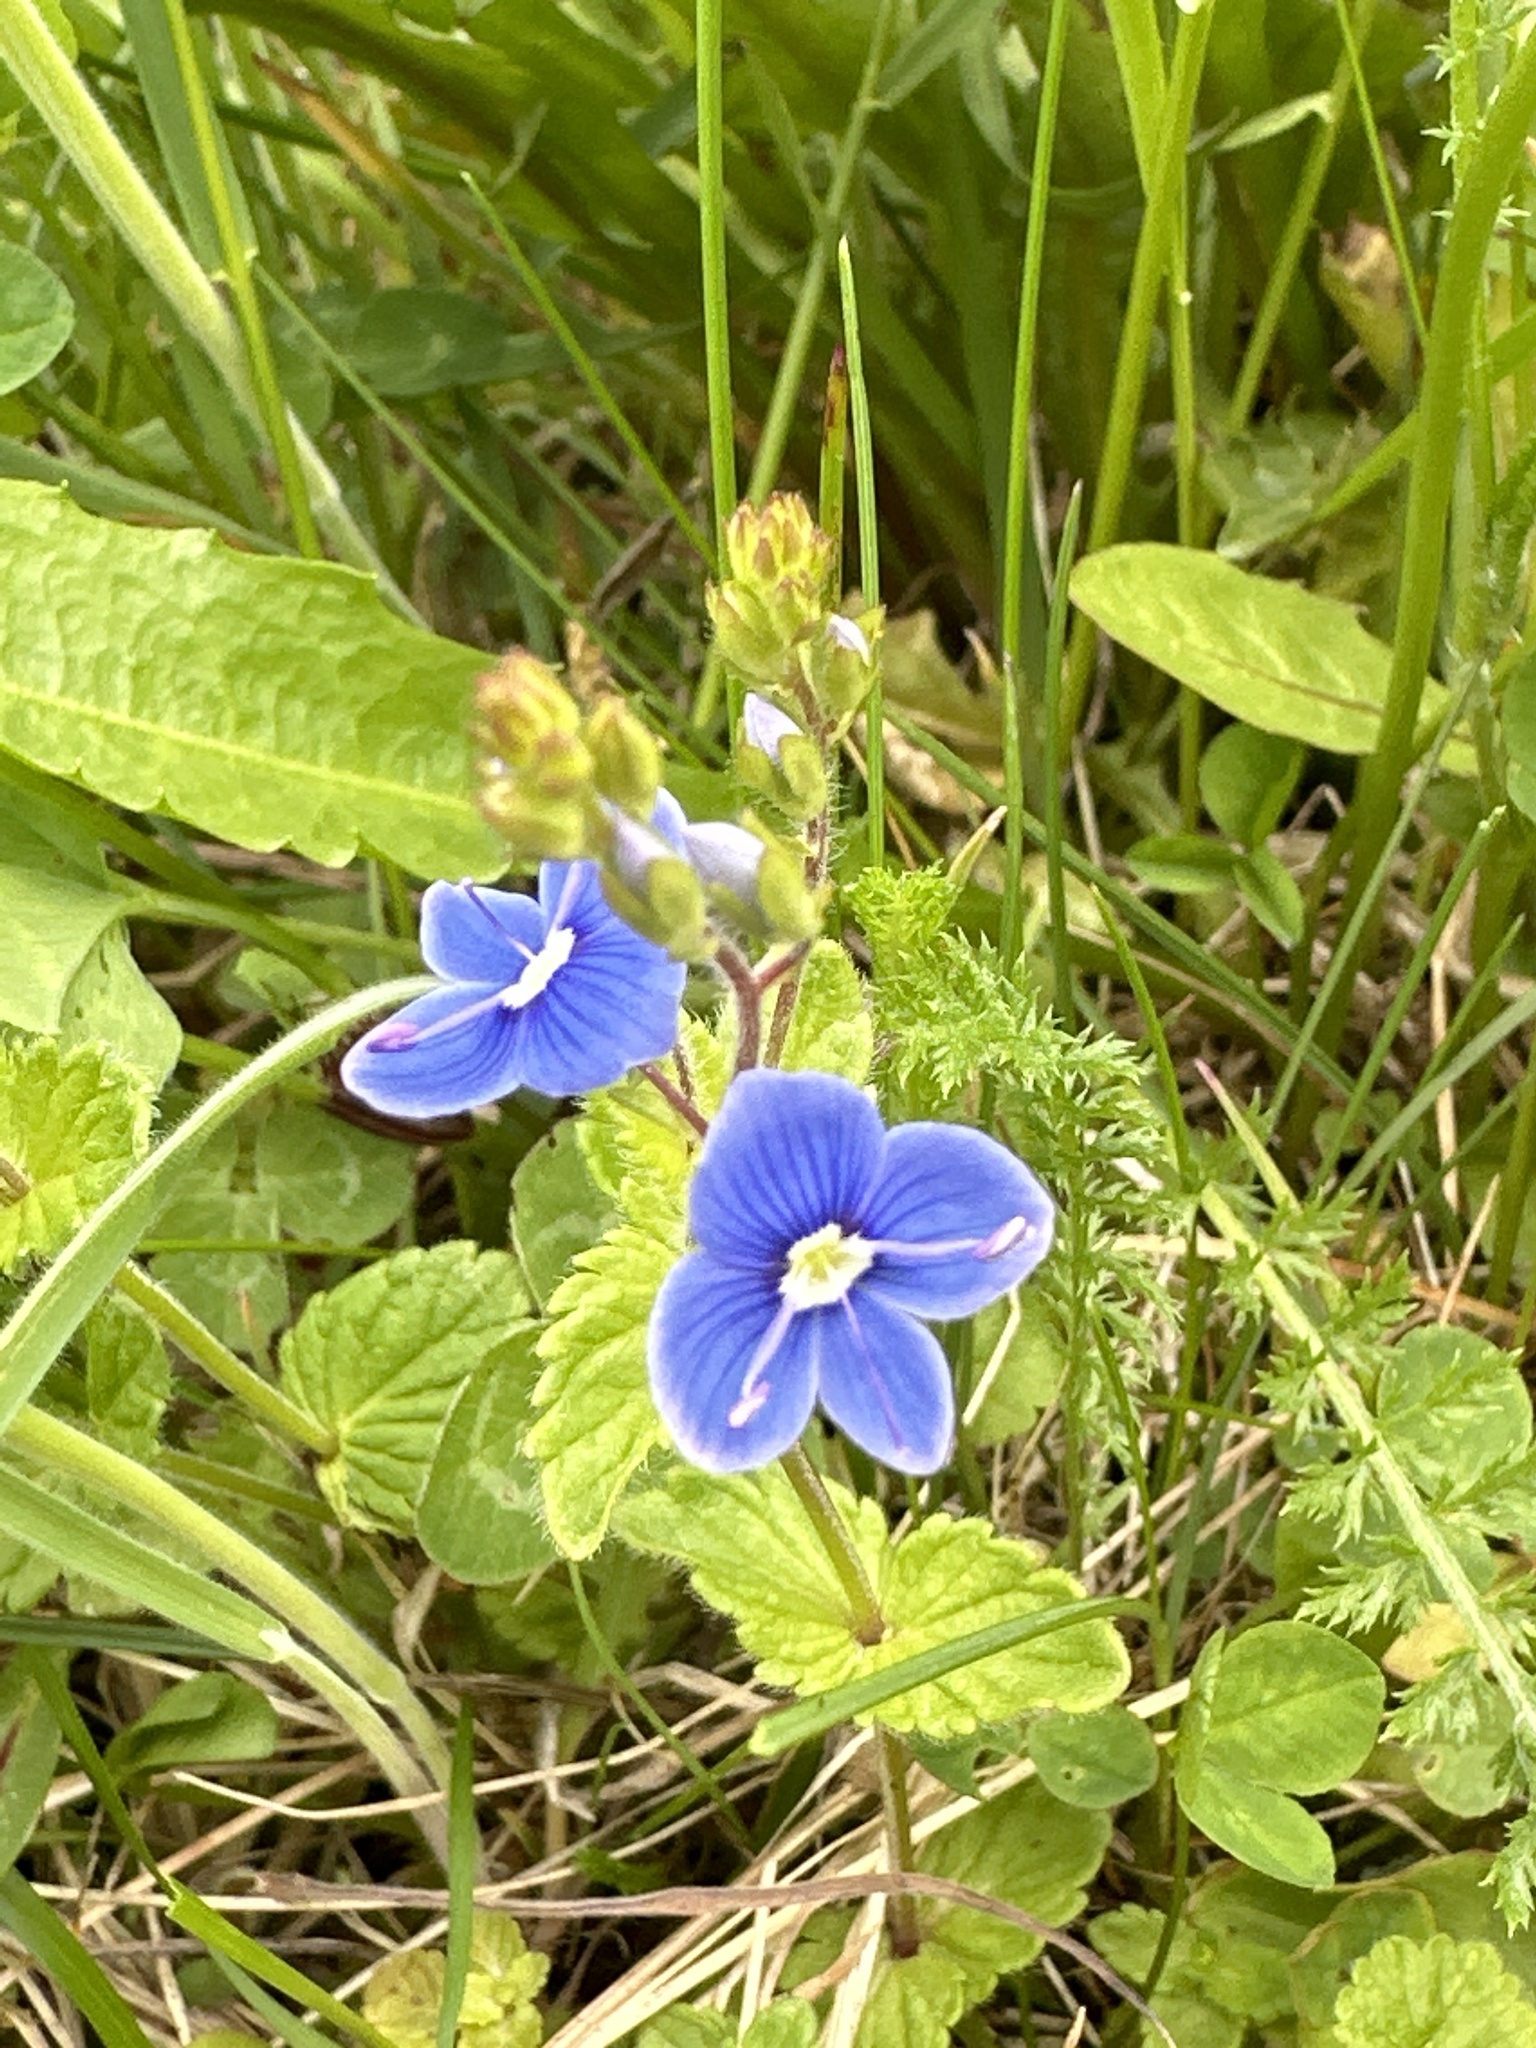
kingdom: Plantae
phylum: Tracheophyta
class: Magnoliopsida
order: Lamiales
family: Plantaginaceae
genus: Veronica
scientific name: Veronica chamaedrys
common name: Germander speedwell
